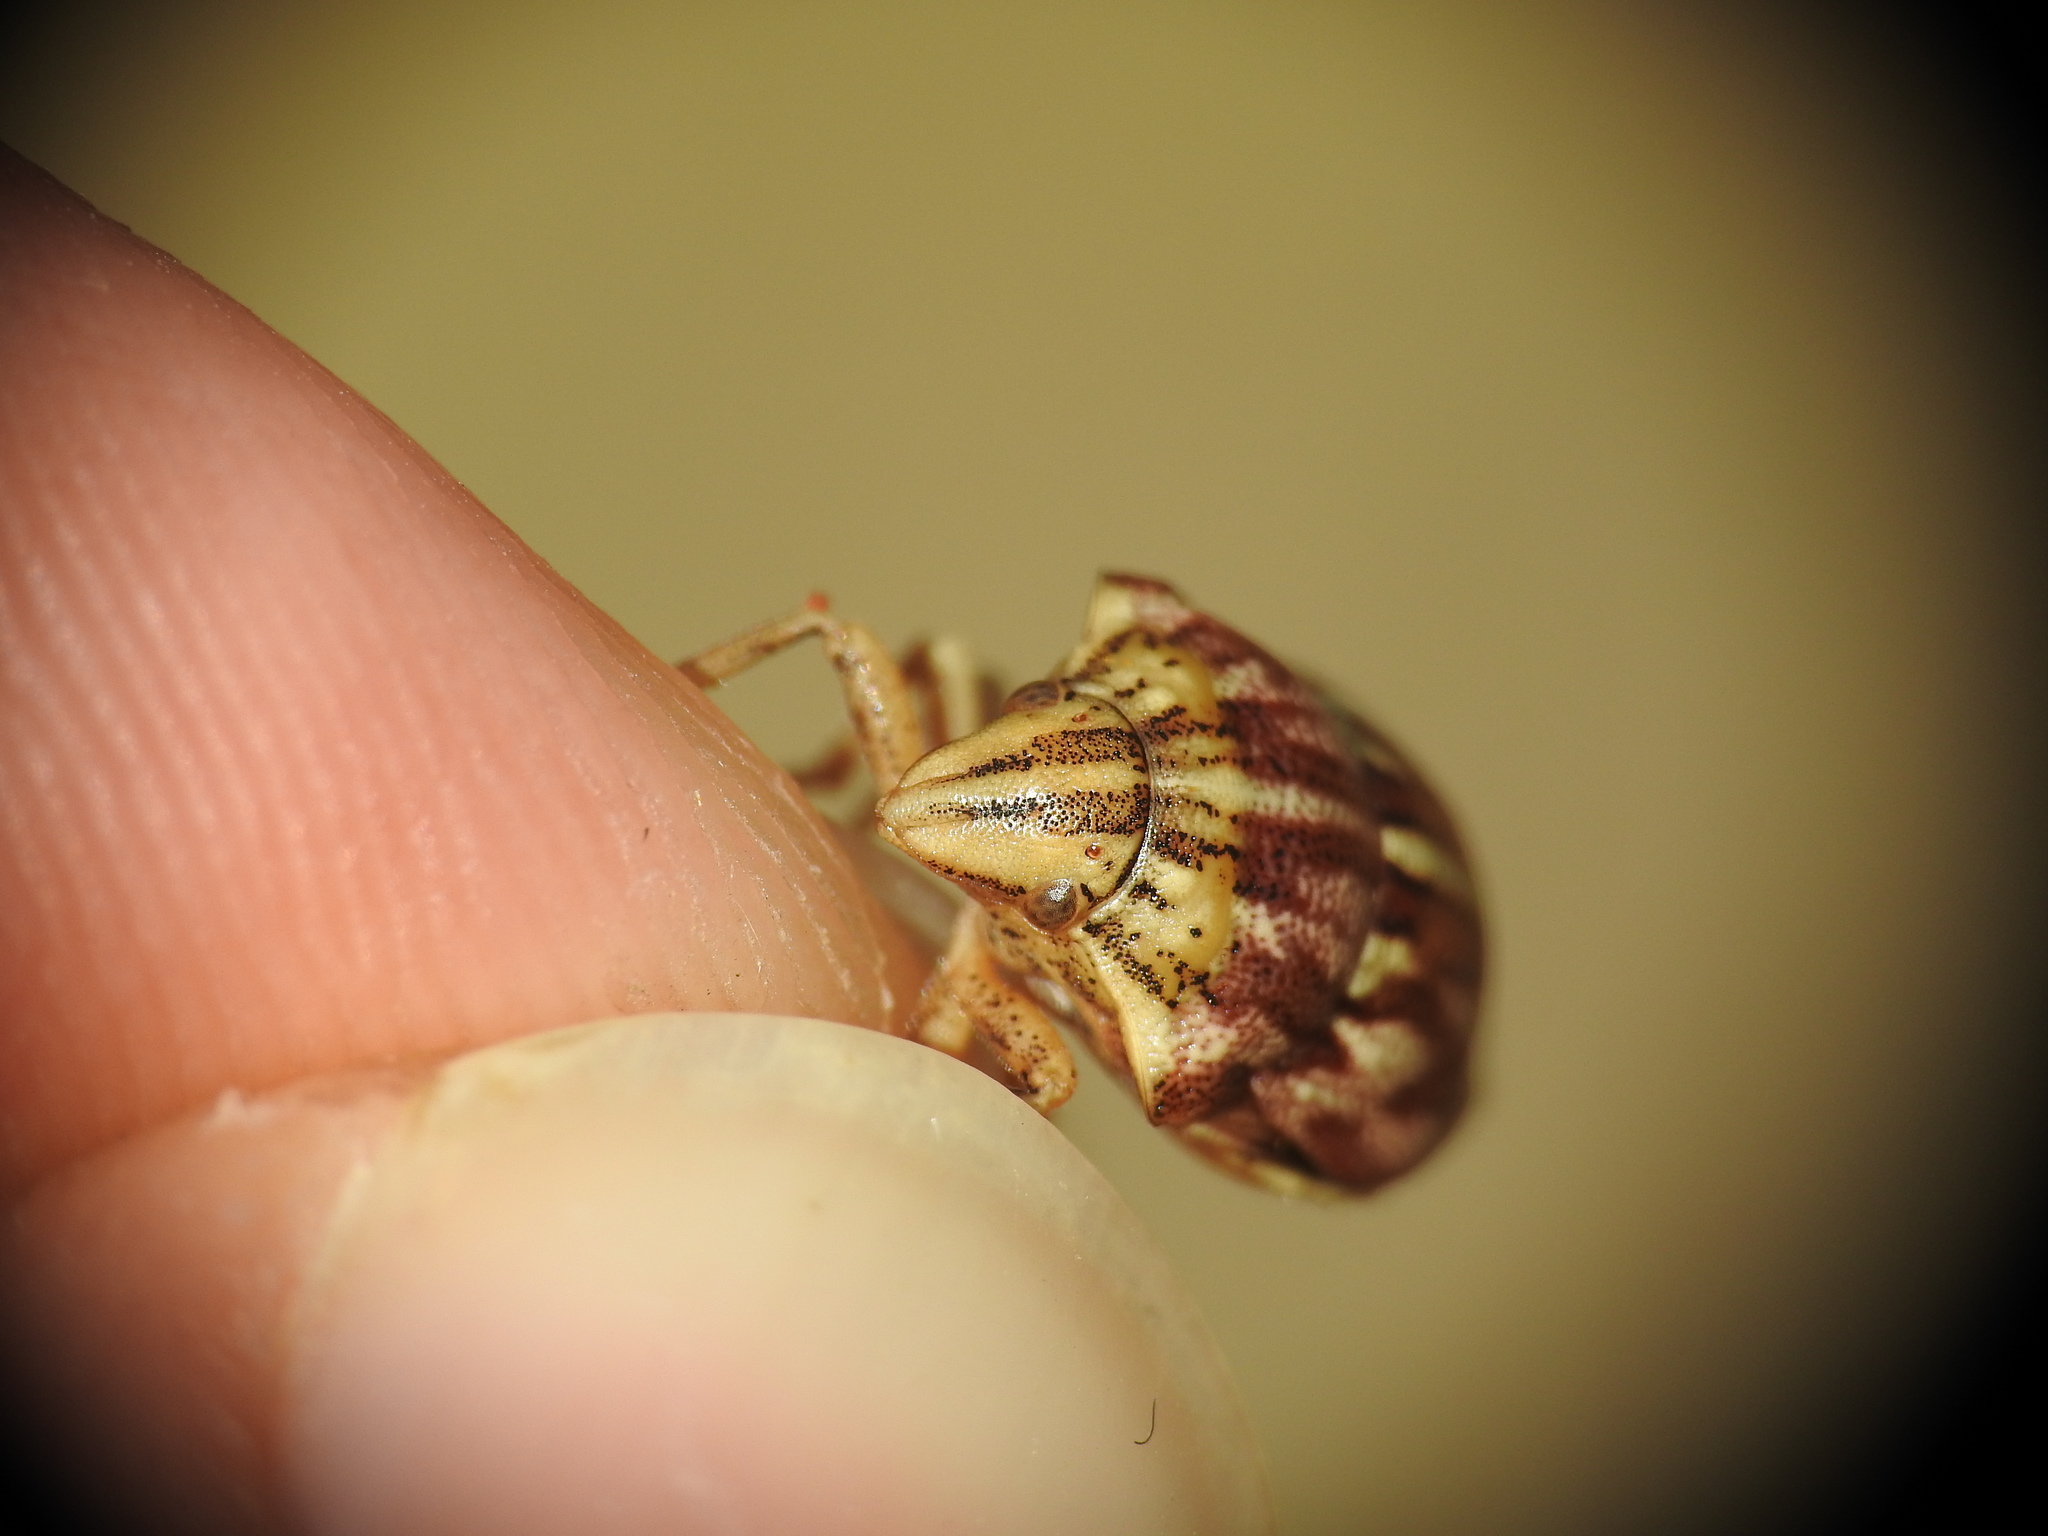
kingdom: Animalia
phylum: Arthropoda
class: Insecta
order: Hemiptera
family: Scutelleridae
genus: Odontotarsus
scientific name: Odontotarsus purpureolineatus
